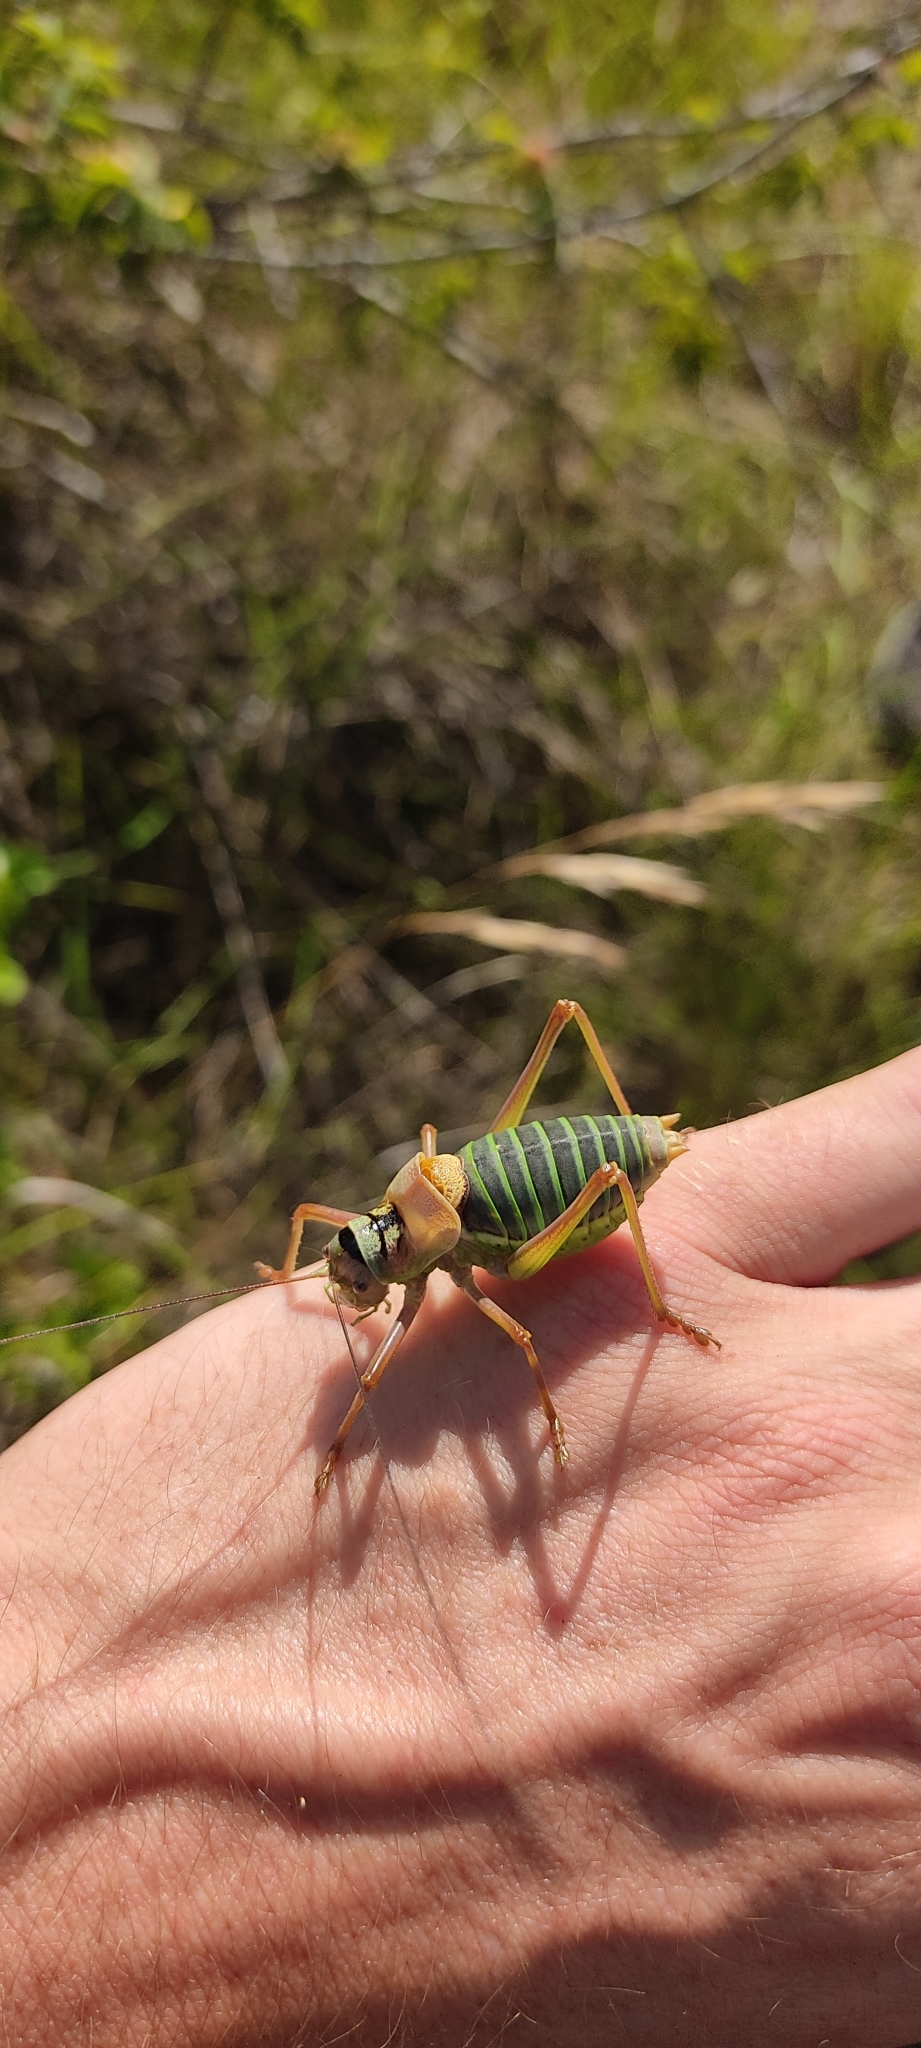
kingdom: Animalia
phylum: Arthropoda
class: Insecta
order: Orthoptera
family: Tettigoniidae
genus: Ephippiger
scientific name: Ephippiger diurnus
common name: Western saddle bush-cricket
